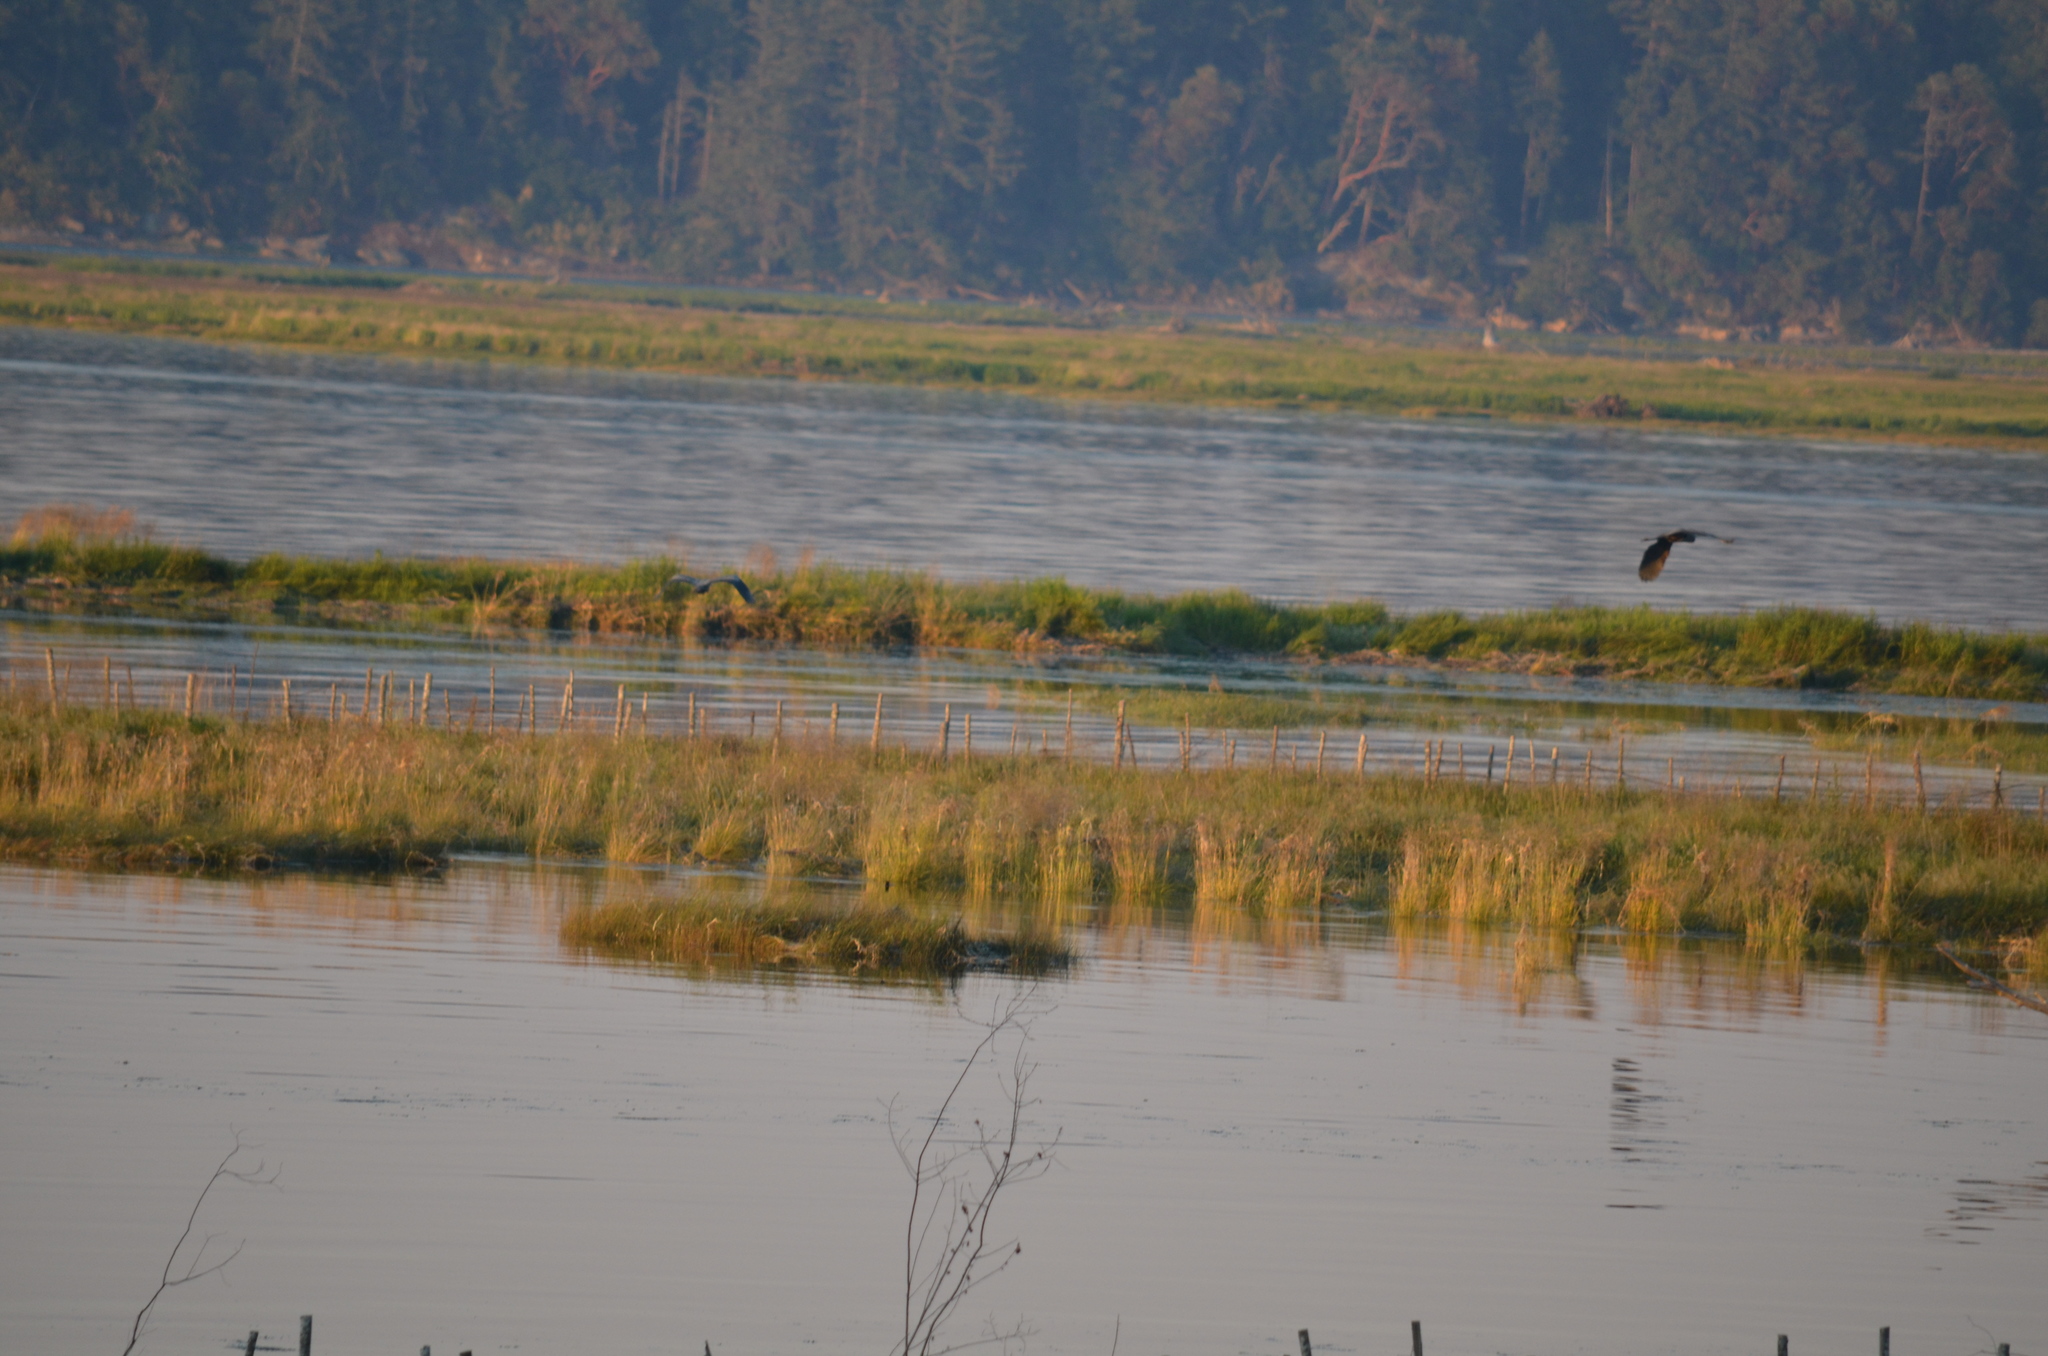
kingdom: Animalia
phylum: Chordata
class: Aves
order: Pelecaniformes
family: Ardeidae
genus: Ardea
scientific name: Ardea herodias
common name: Great blue heron
